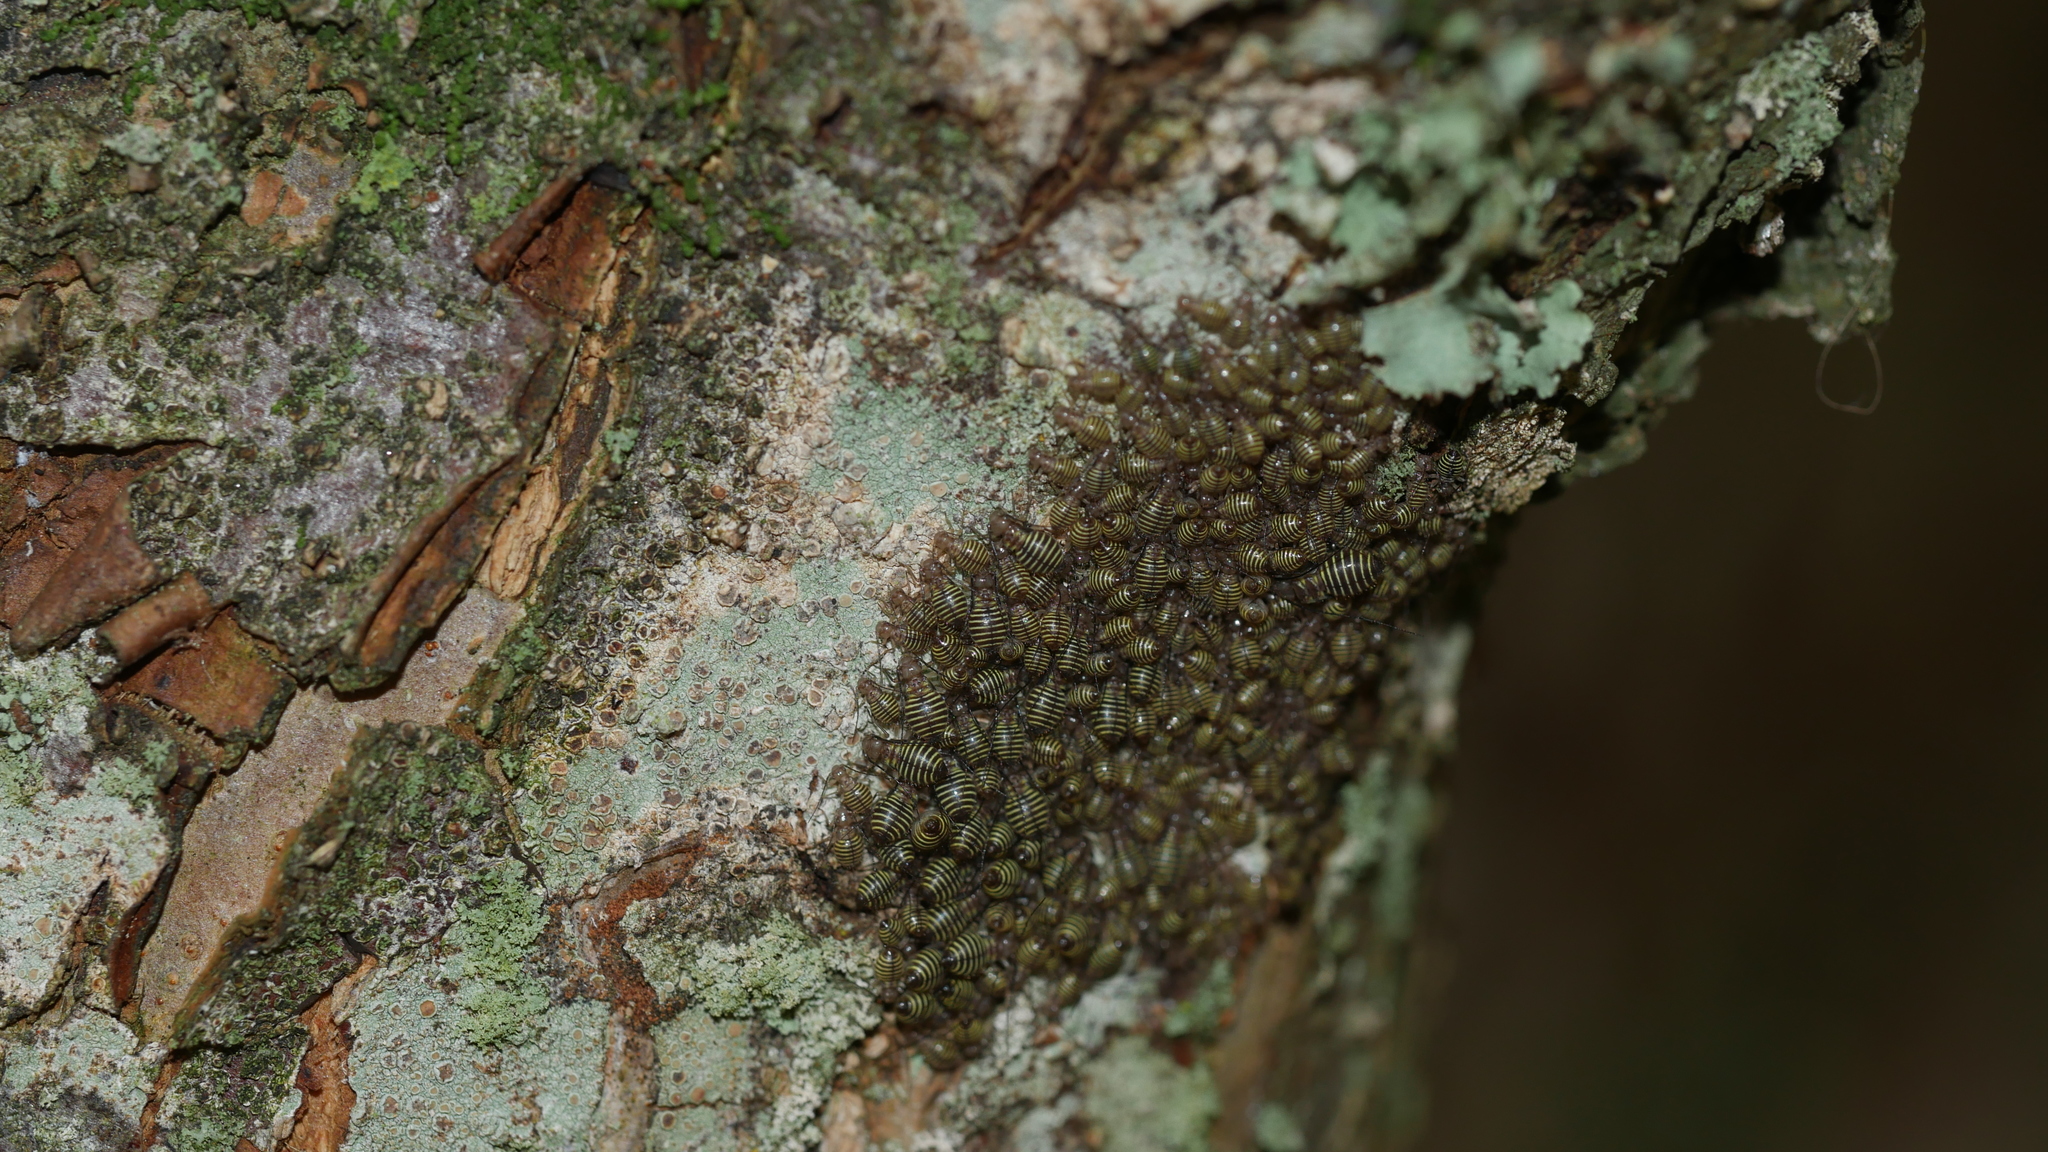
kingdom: Animalia
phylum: Arthropoda
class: Insecta
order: Psocodea
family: Psocidae
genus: Cerastipsocus
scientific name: Cerastipsocus venosus
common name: Tree cattle
